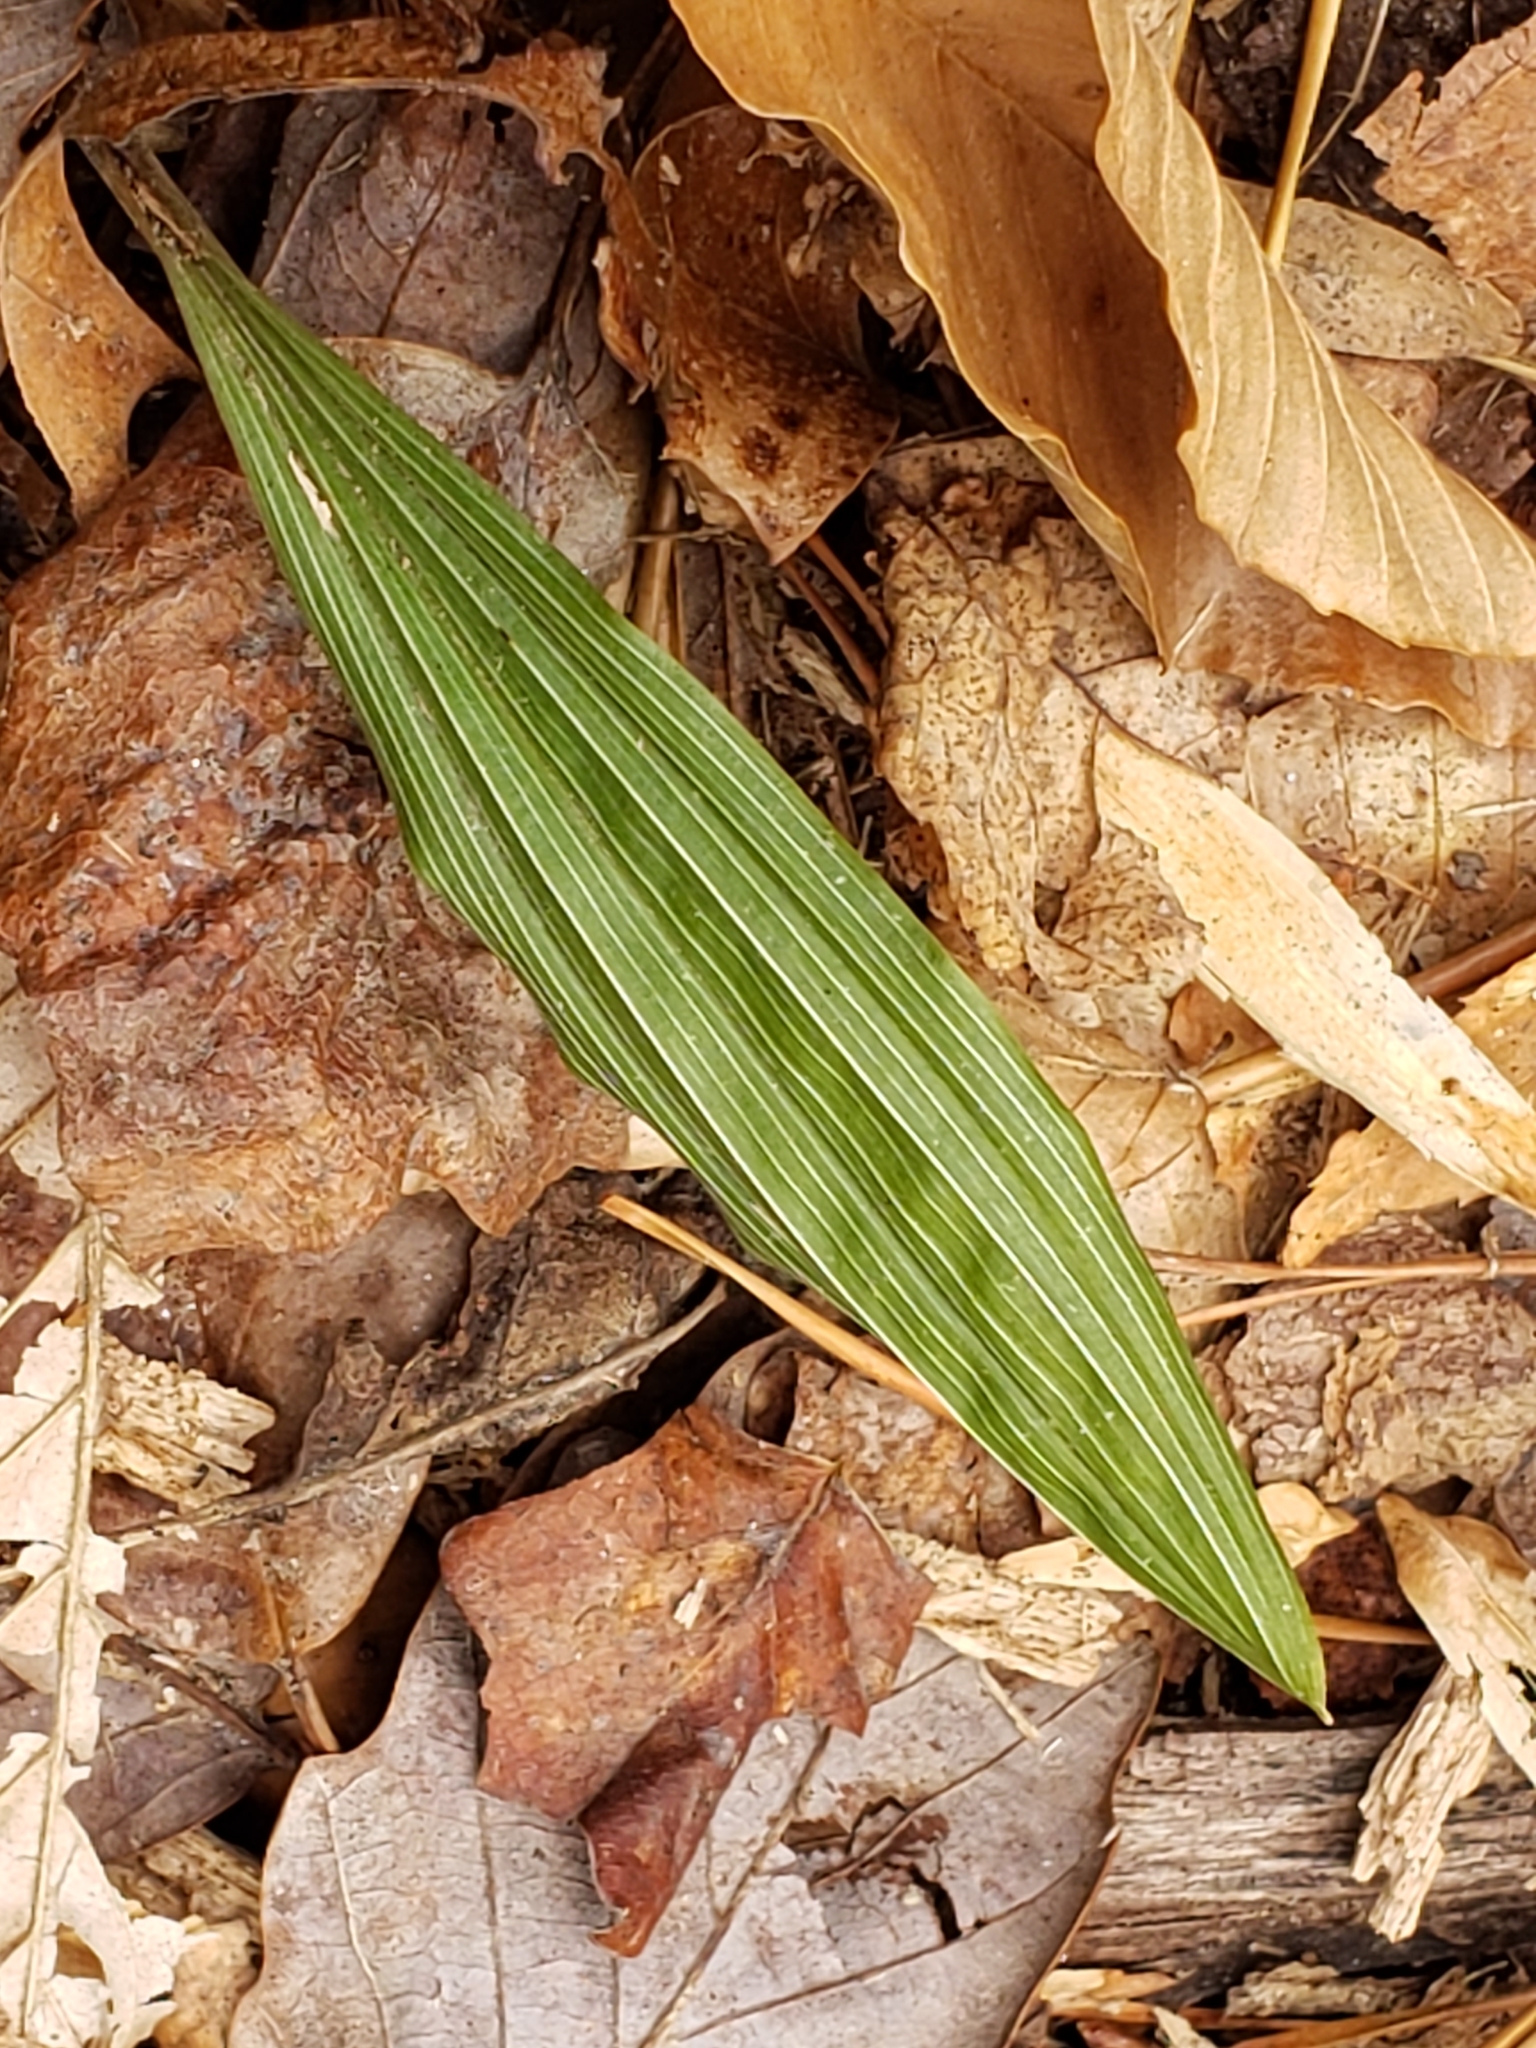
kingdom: Plantae
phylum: Tracheophyta
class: Liliopsida
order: Asparagales
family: Orchidaceae
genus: Aplectrum
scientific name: Aplectrum hyemale
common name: Adam-and-eve
